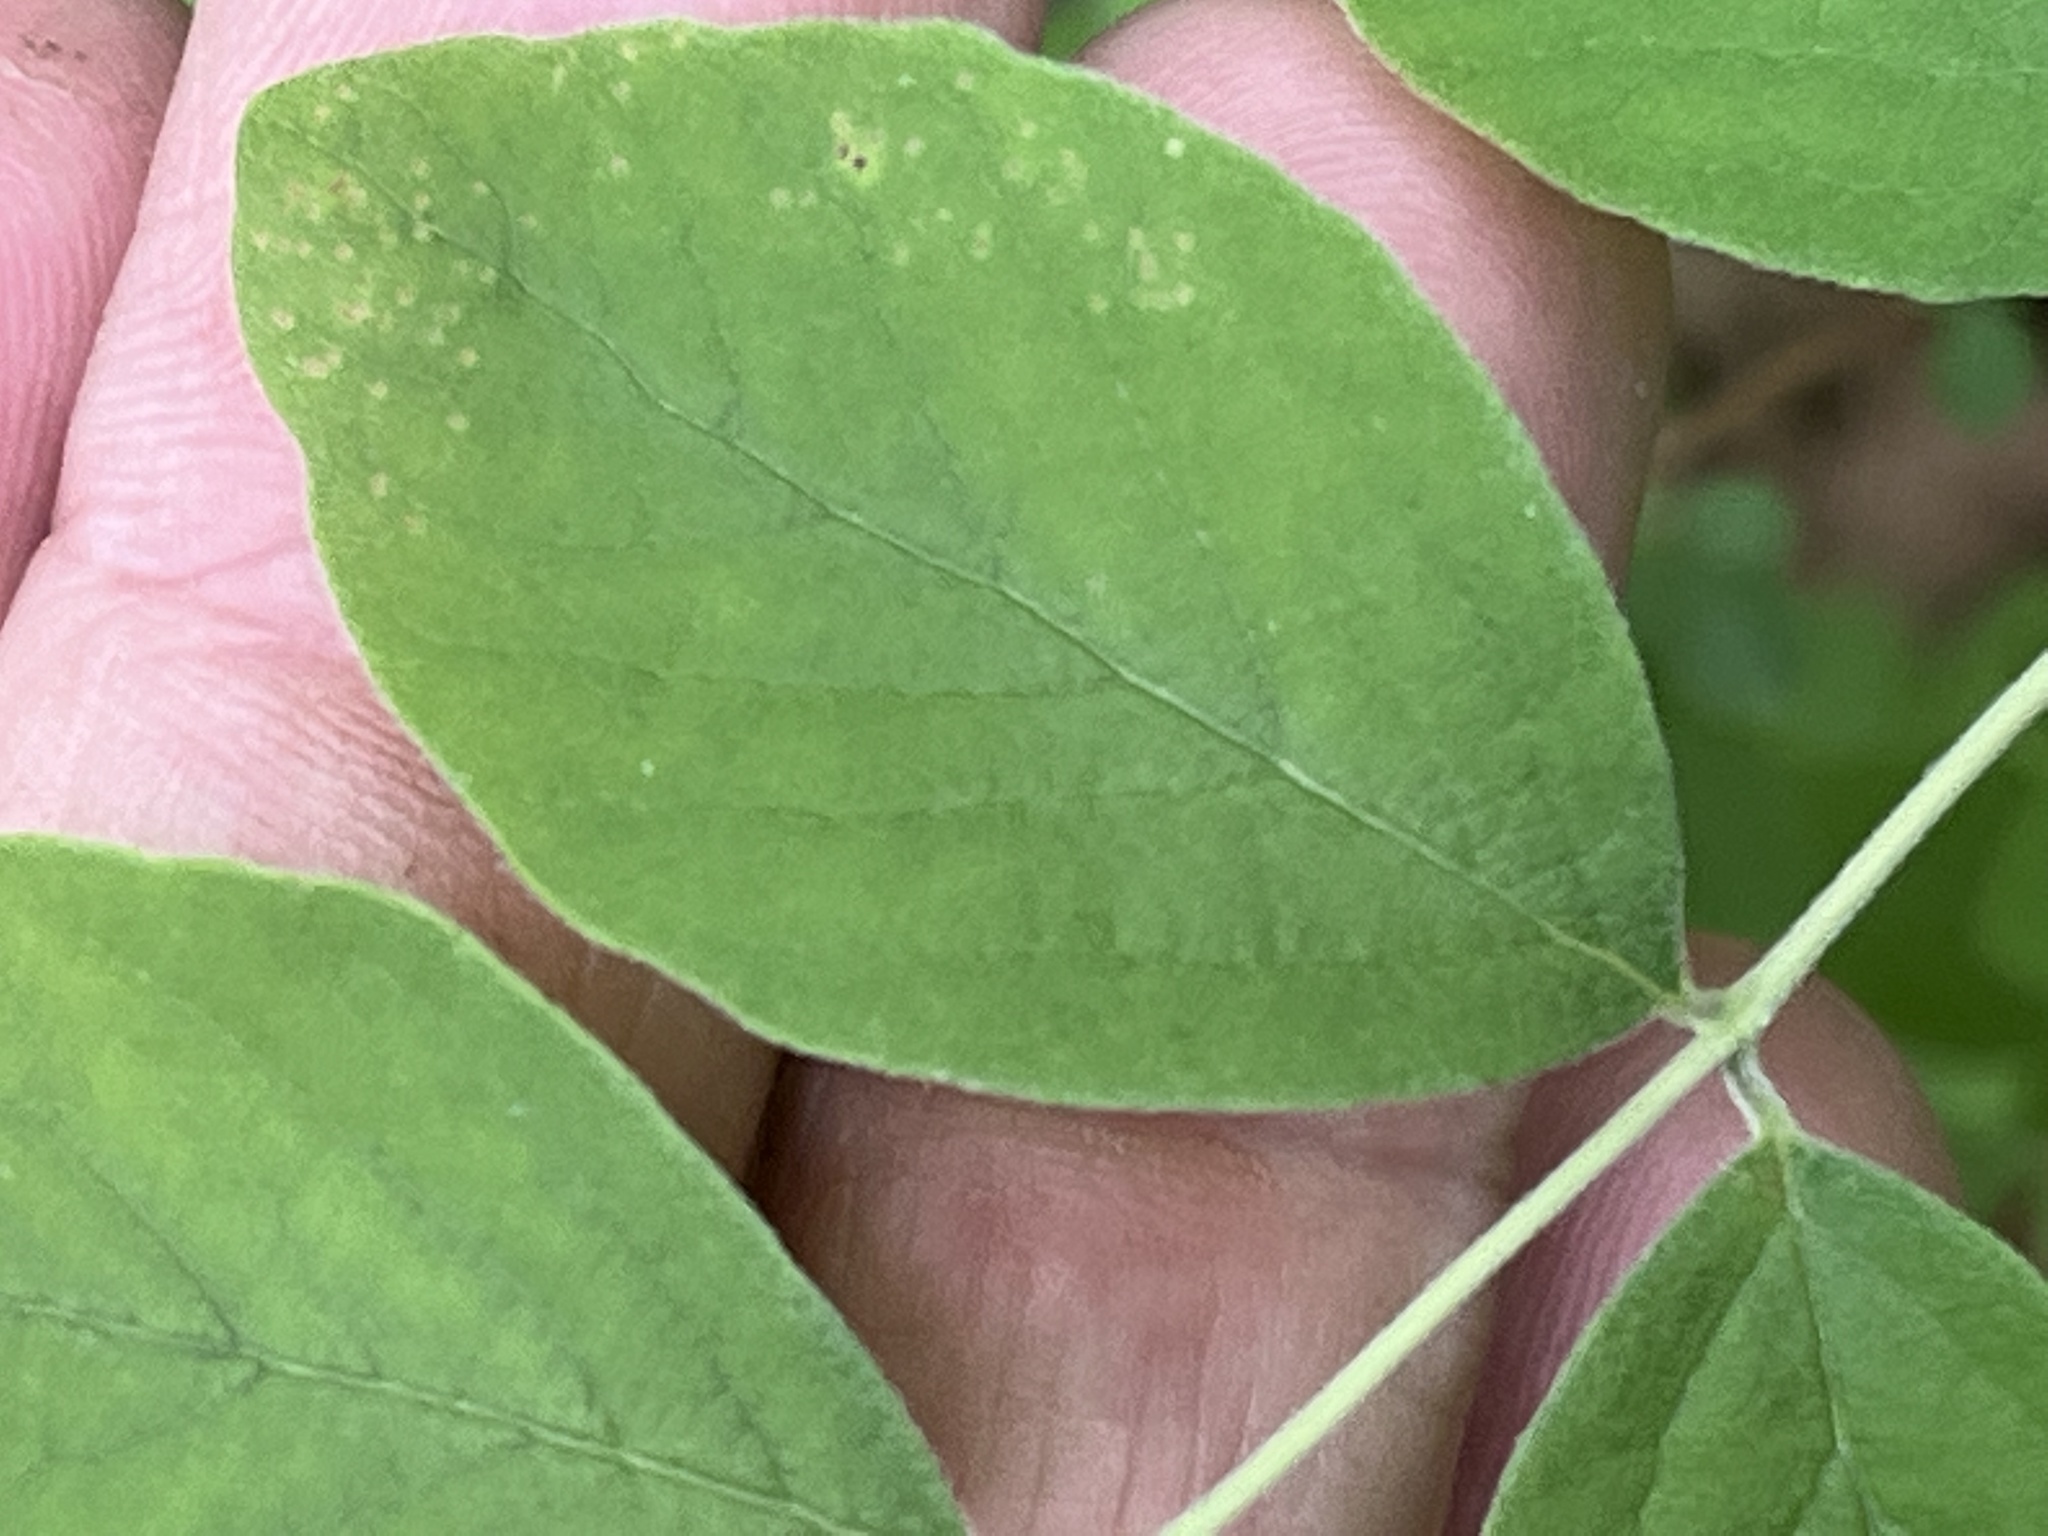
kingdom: Plantae
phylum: Tracheophyta
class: Magnoliopsida
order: Dipsacales
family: Caprifoliaceae
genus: Symphoricarpos
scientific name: Symphoricarpos orbiculatus
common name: Coralberry
